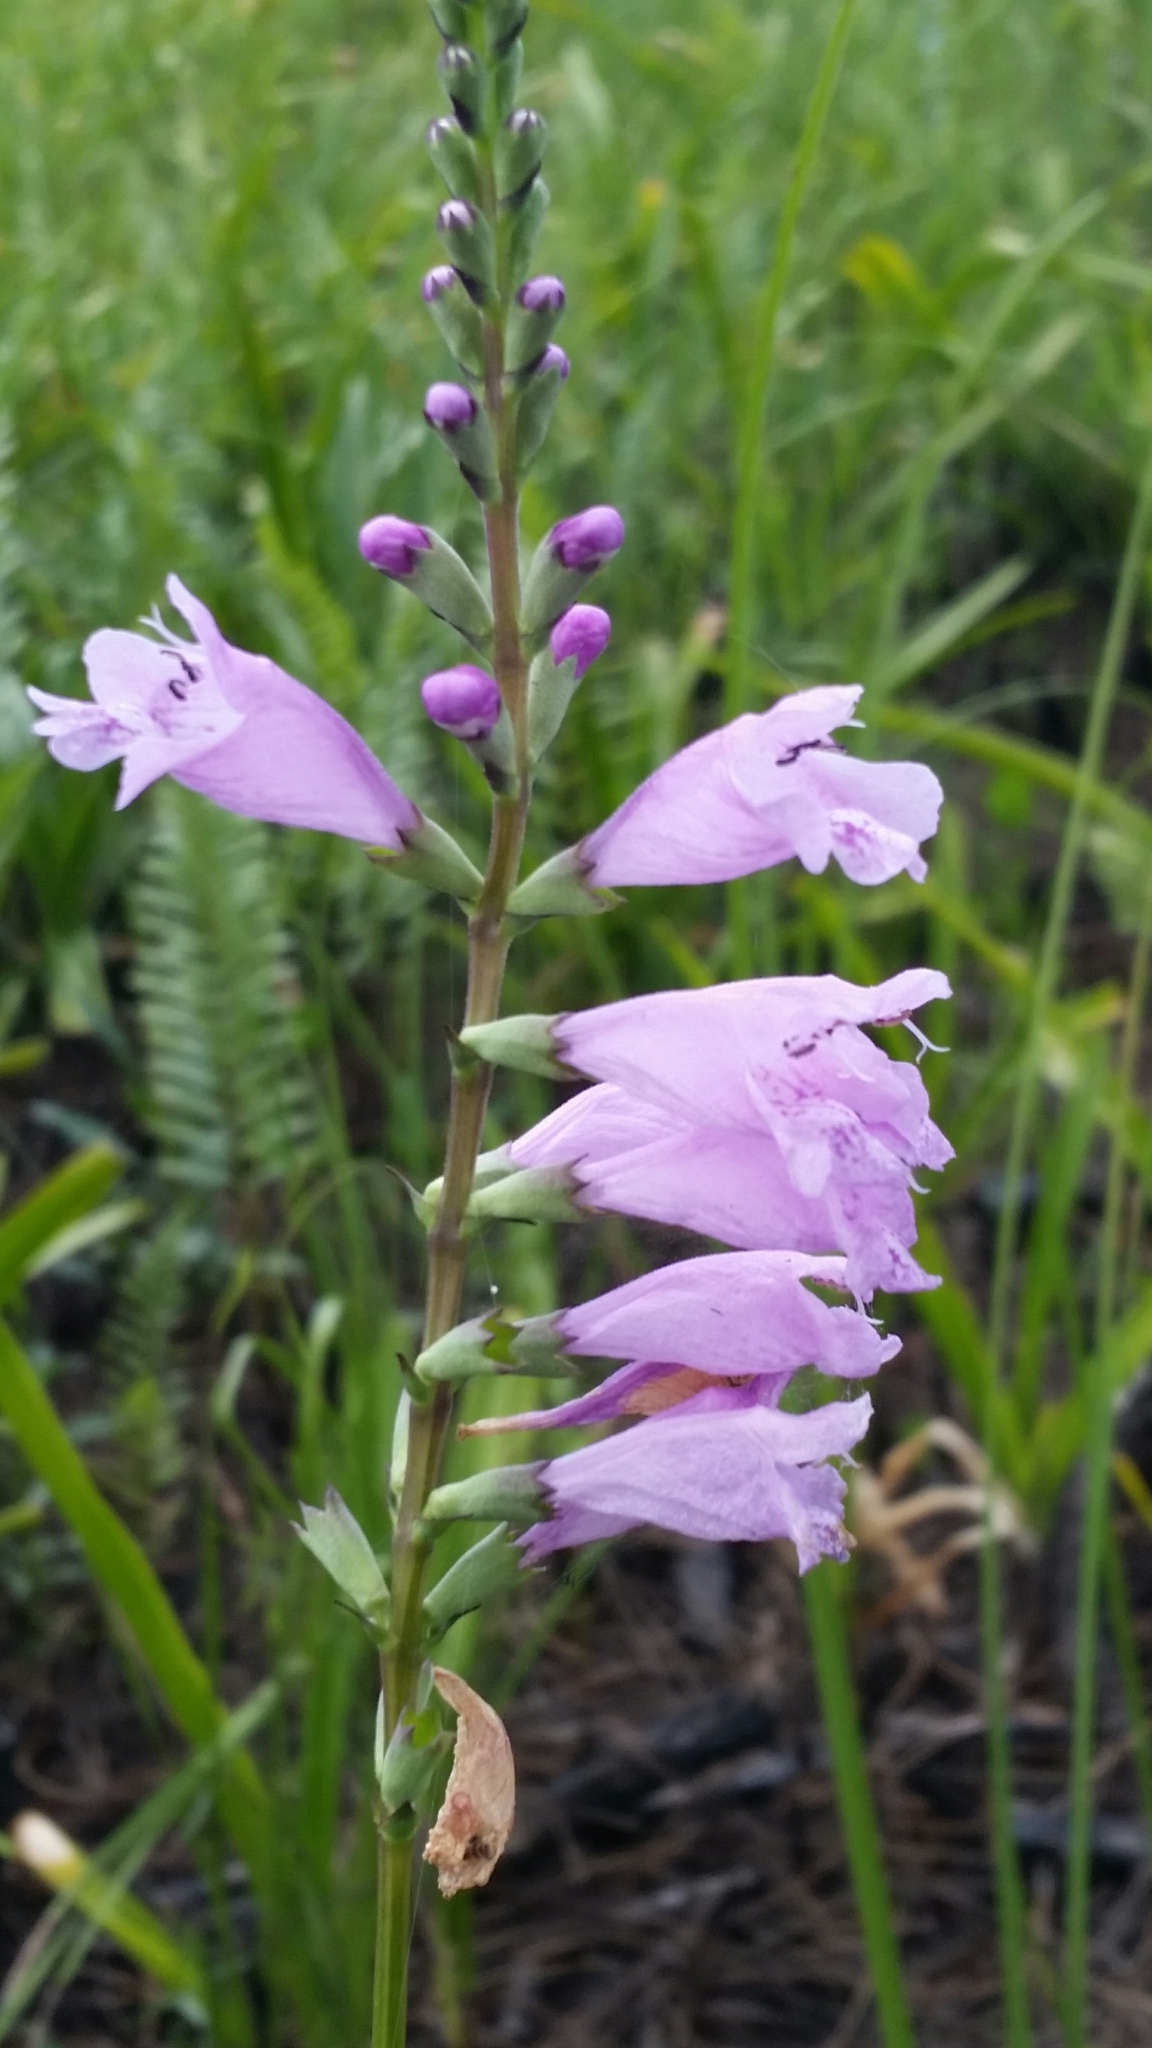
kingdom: Plantae
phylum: Tracheophyta
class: Magnoliopsida
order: Lamiales
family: Lamiaceae
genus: Physostegia
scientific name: Physostegia purpurea
